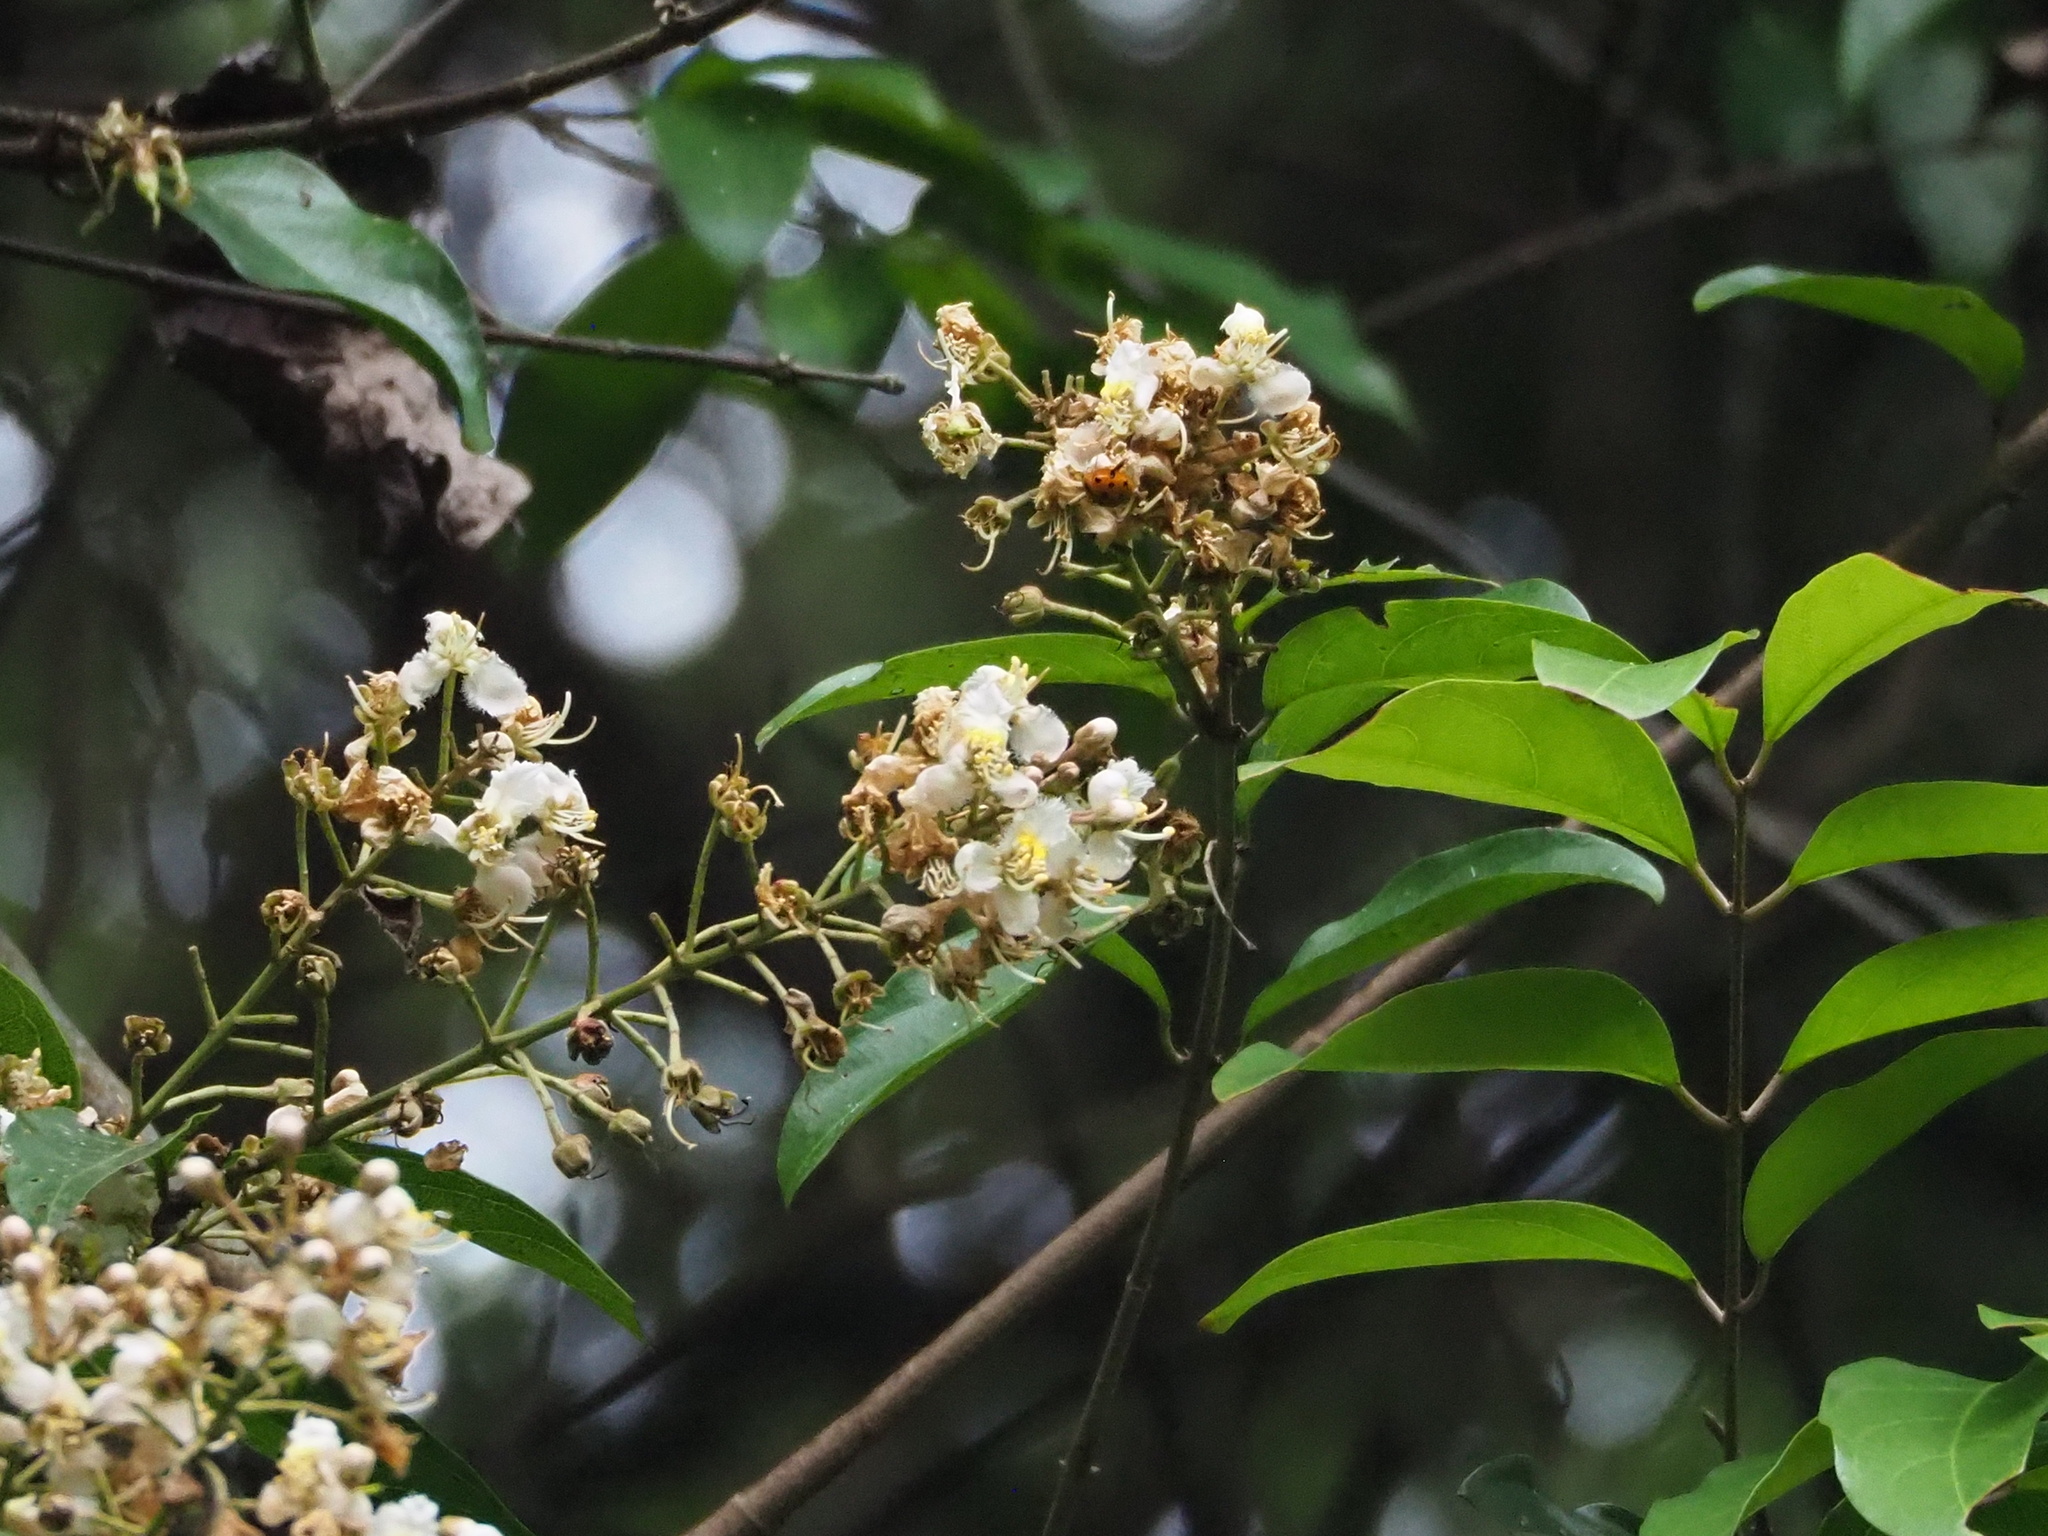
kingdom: Plantae
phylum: Tracheophyta
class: Magnoliopsida
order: Malpighiales
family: Malpighiaceae
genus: Hiptage
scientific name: Hiptage benghalensis
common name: Hiptage
